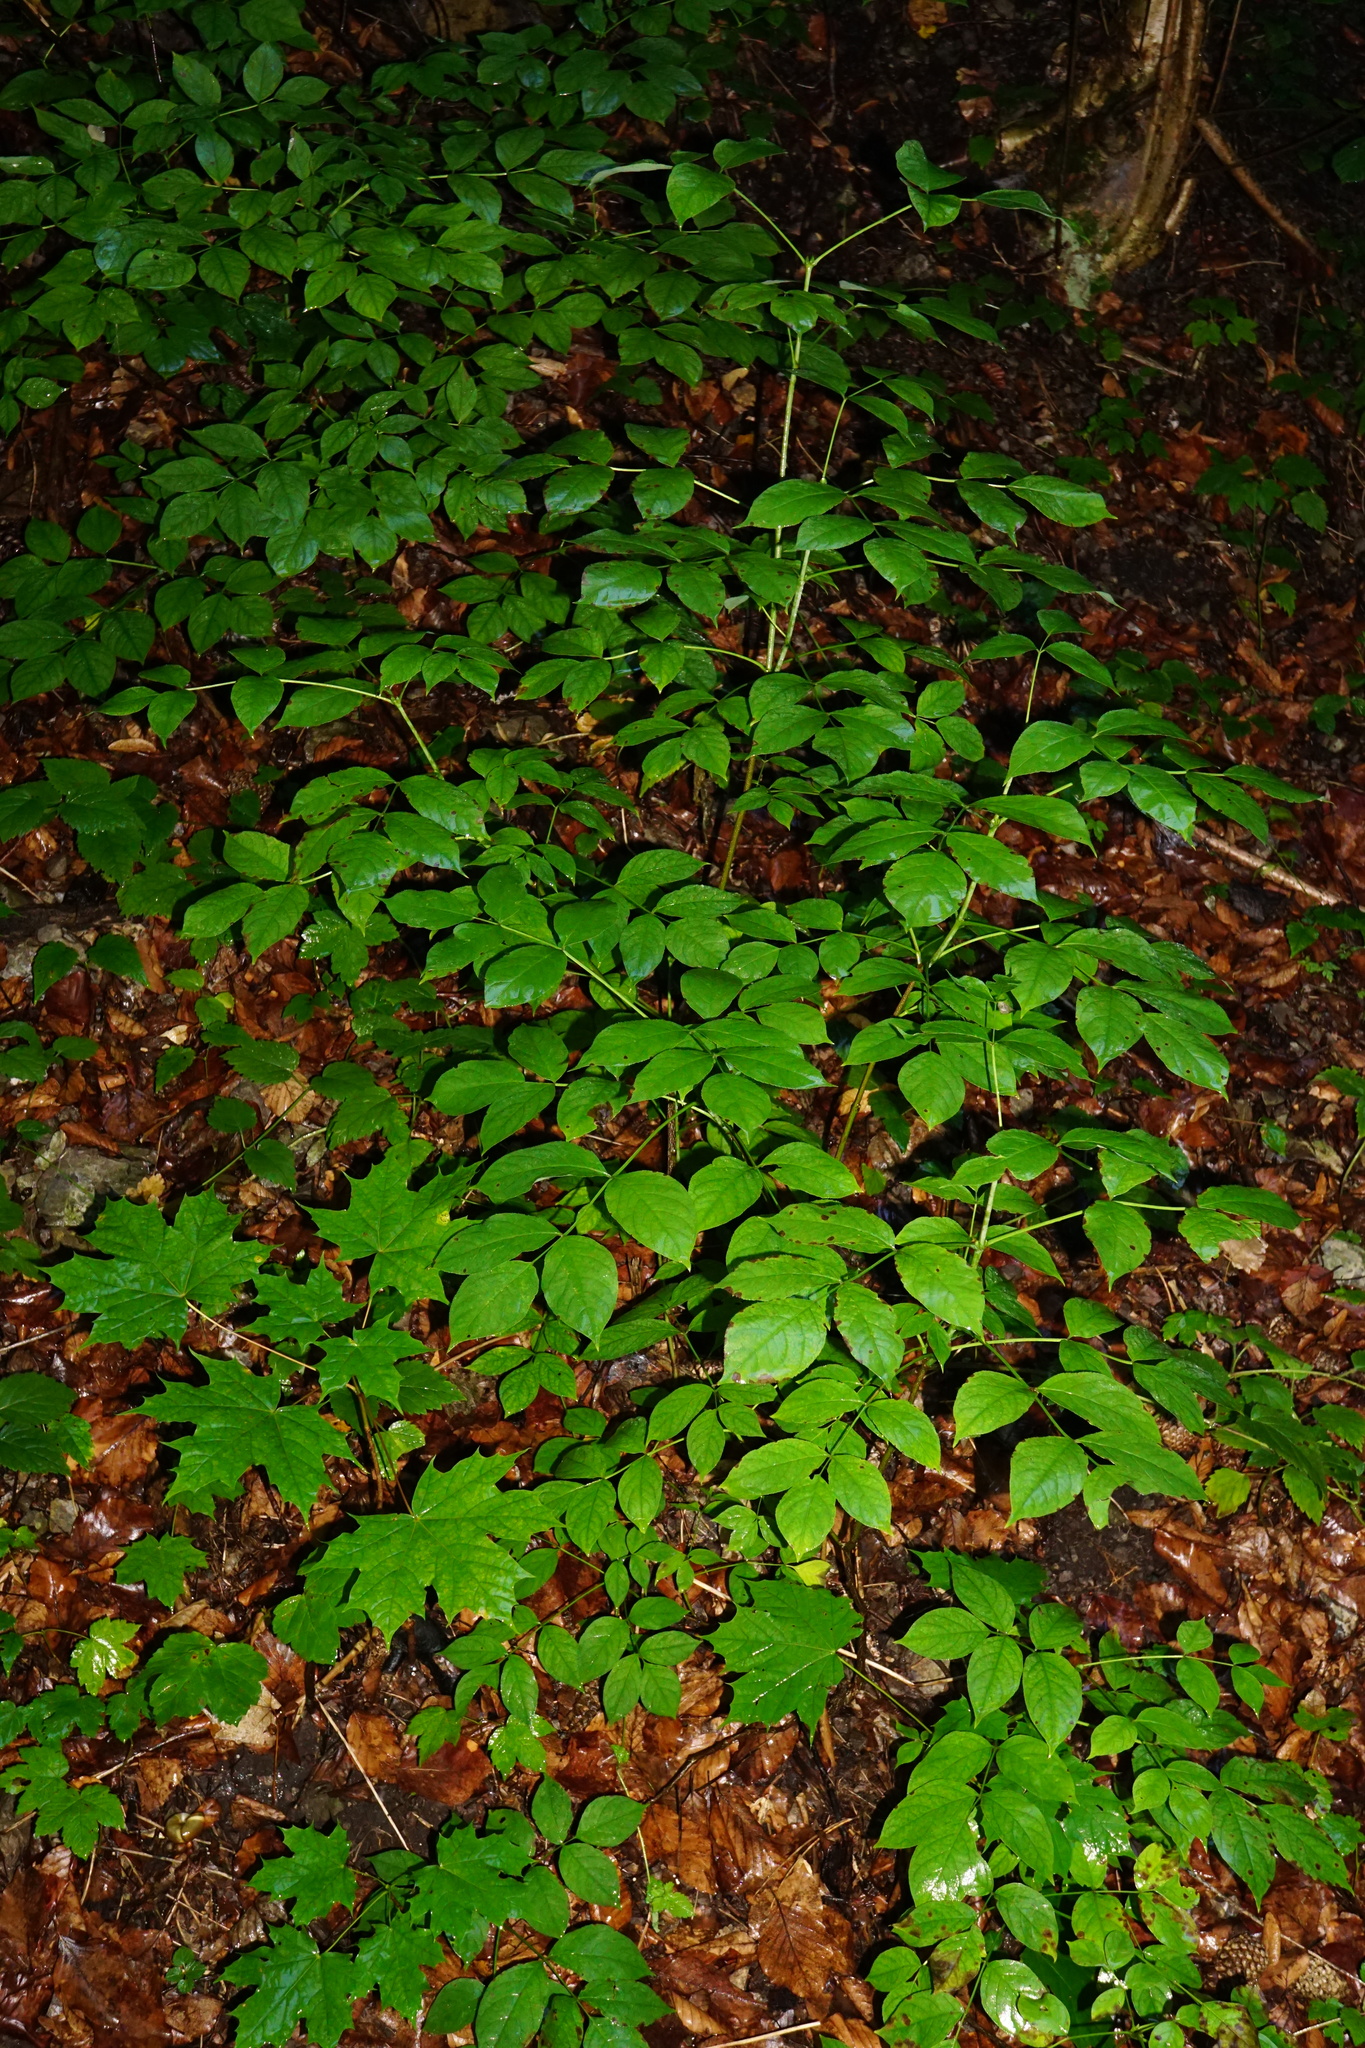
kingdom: Plantae
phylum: Tracheophyta
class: Magnoliopsida
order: Crossosomatales
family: Staphyleaceae
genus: Staphylea
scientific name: Staphylea pinnata
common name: Bladdernut
